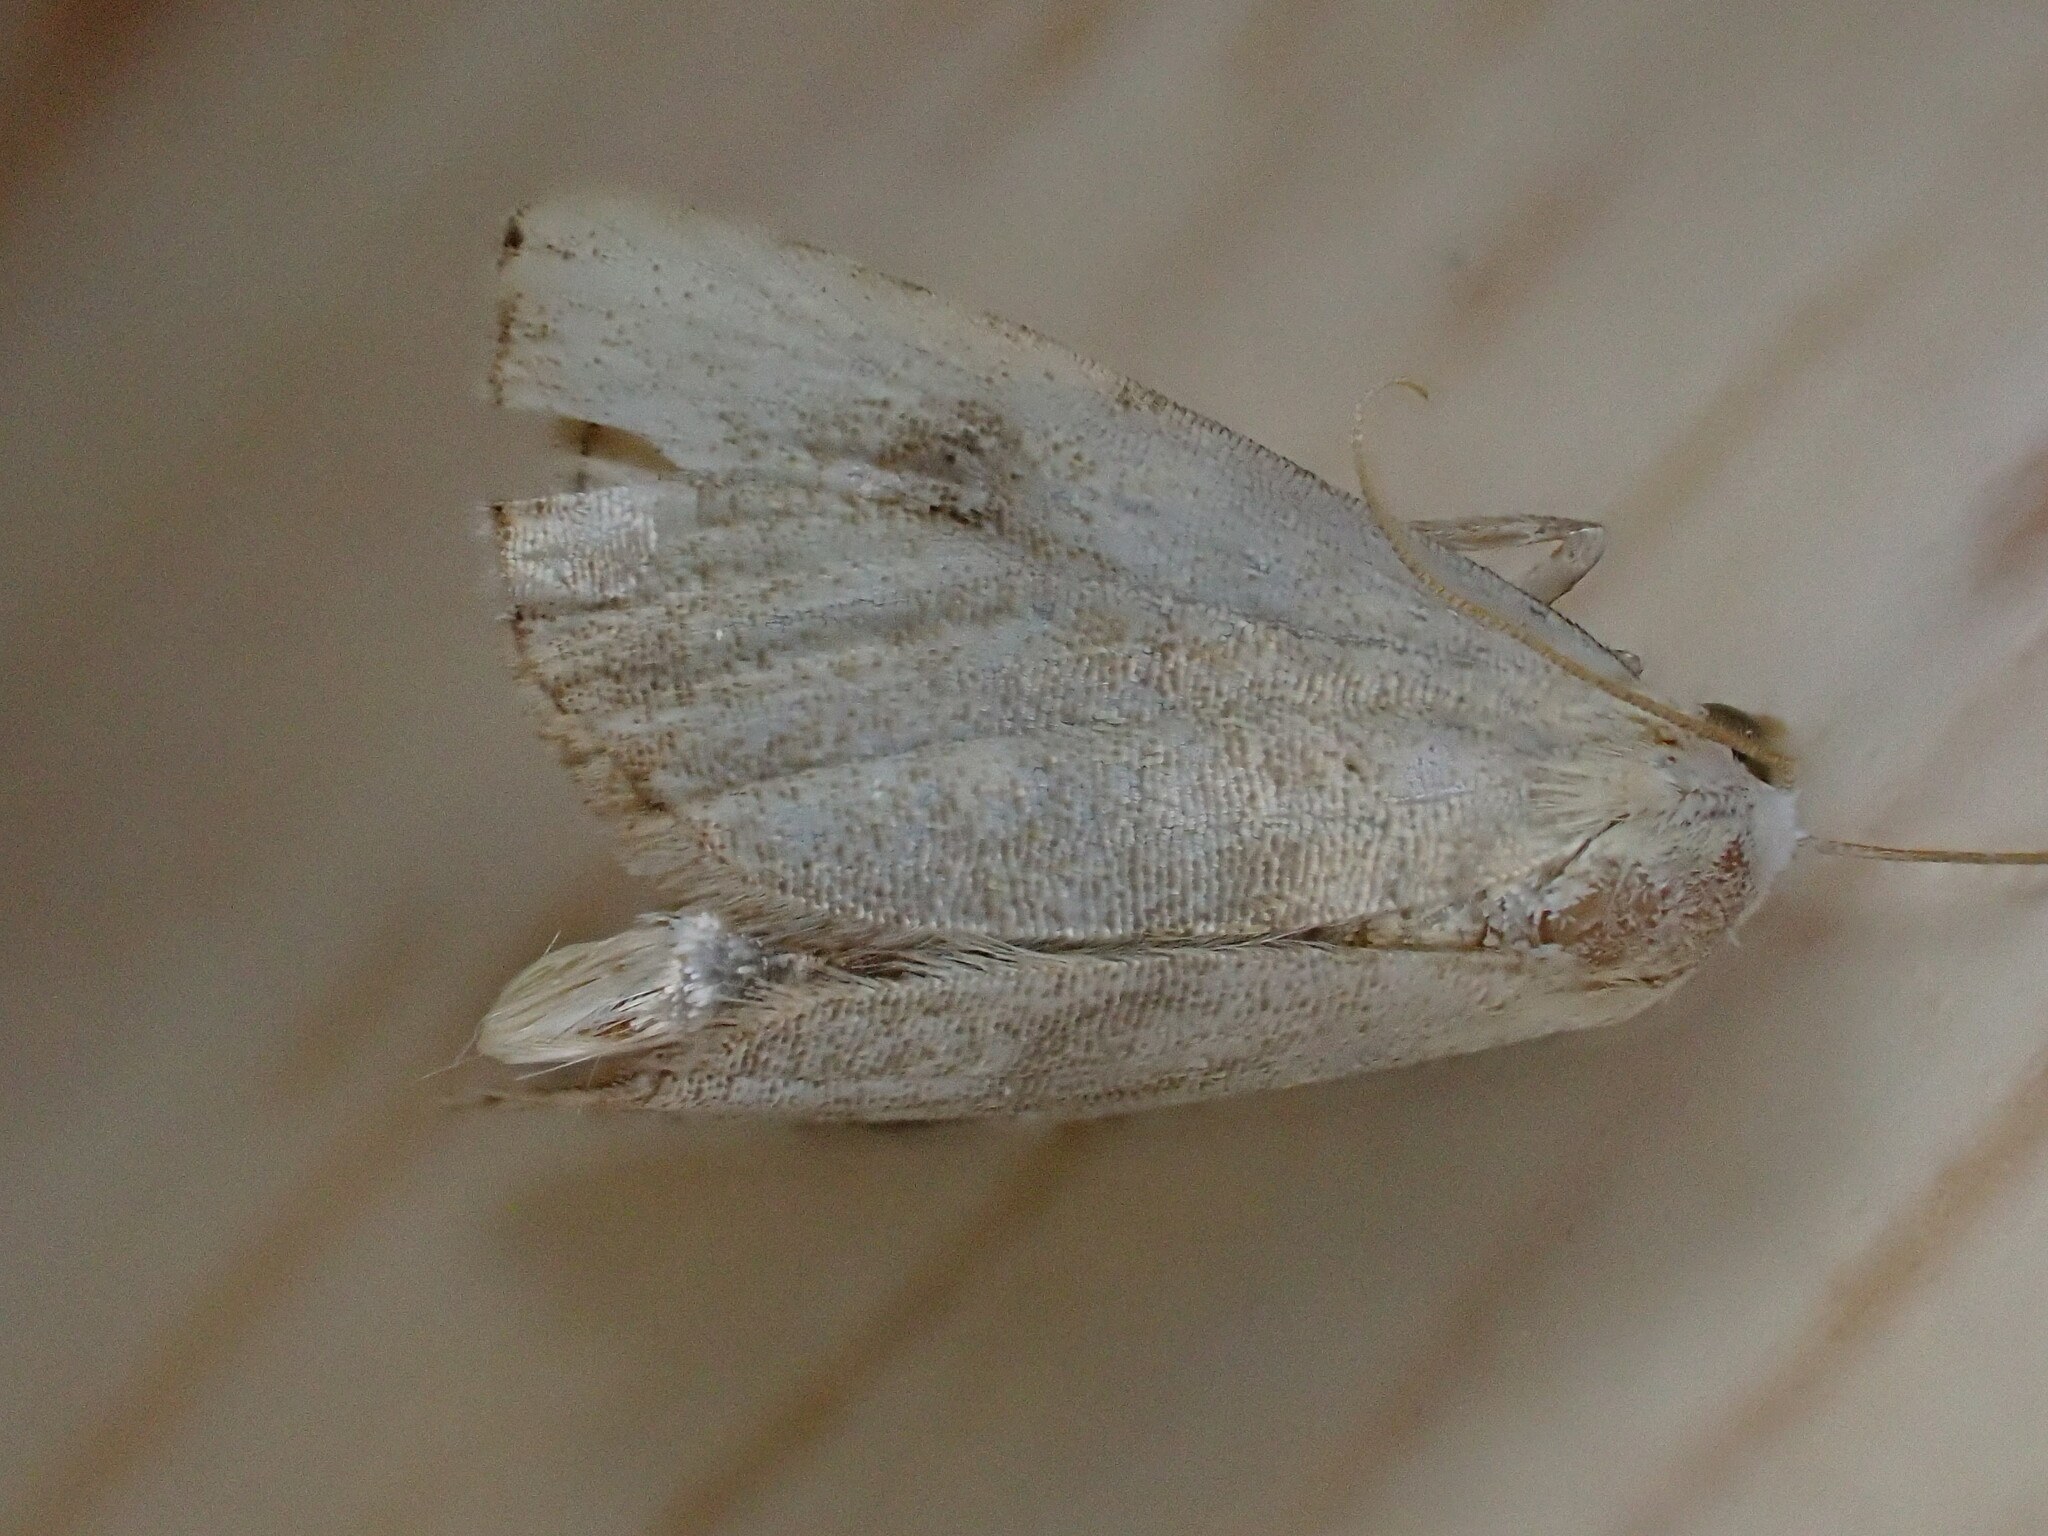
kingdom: Animalia
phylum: Arthropoda
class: Insecta
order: Lepidoptera
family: Erebidae
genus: Rivula
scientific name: Rivula sericealis
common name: Straw dot
